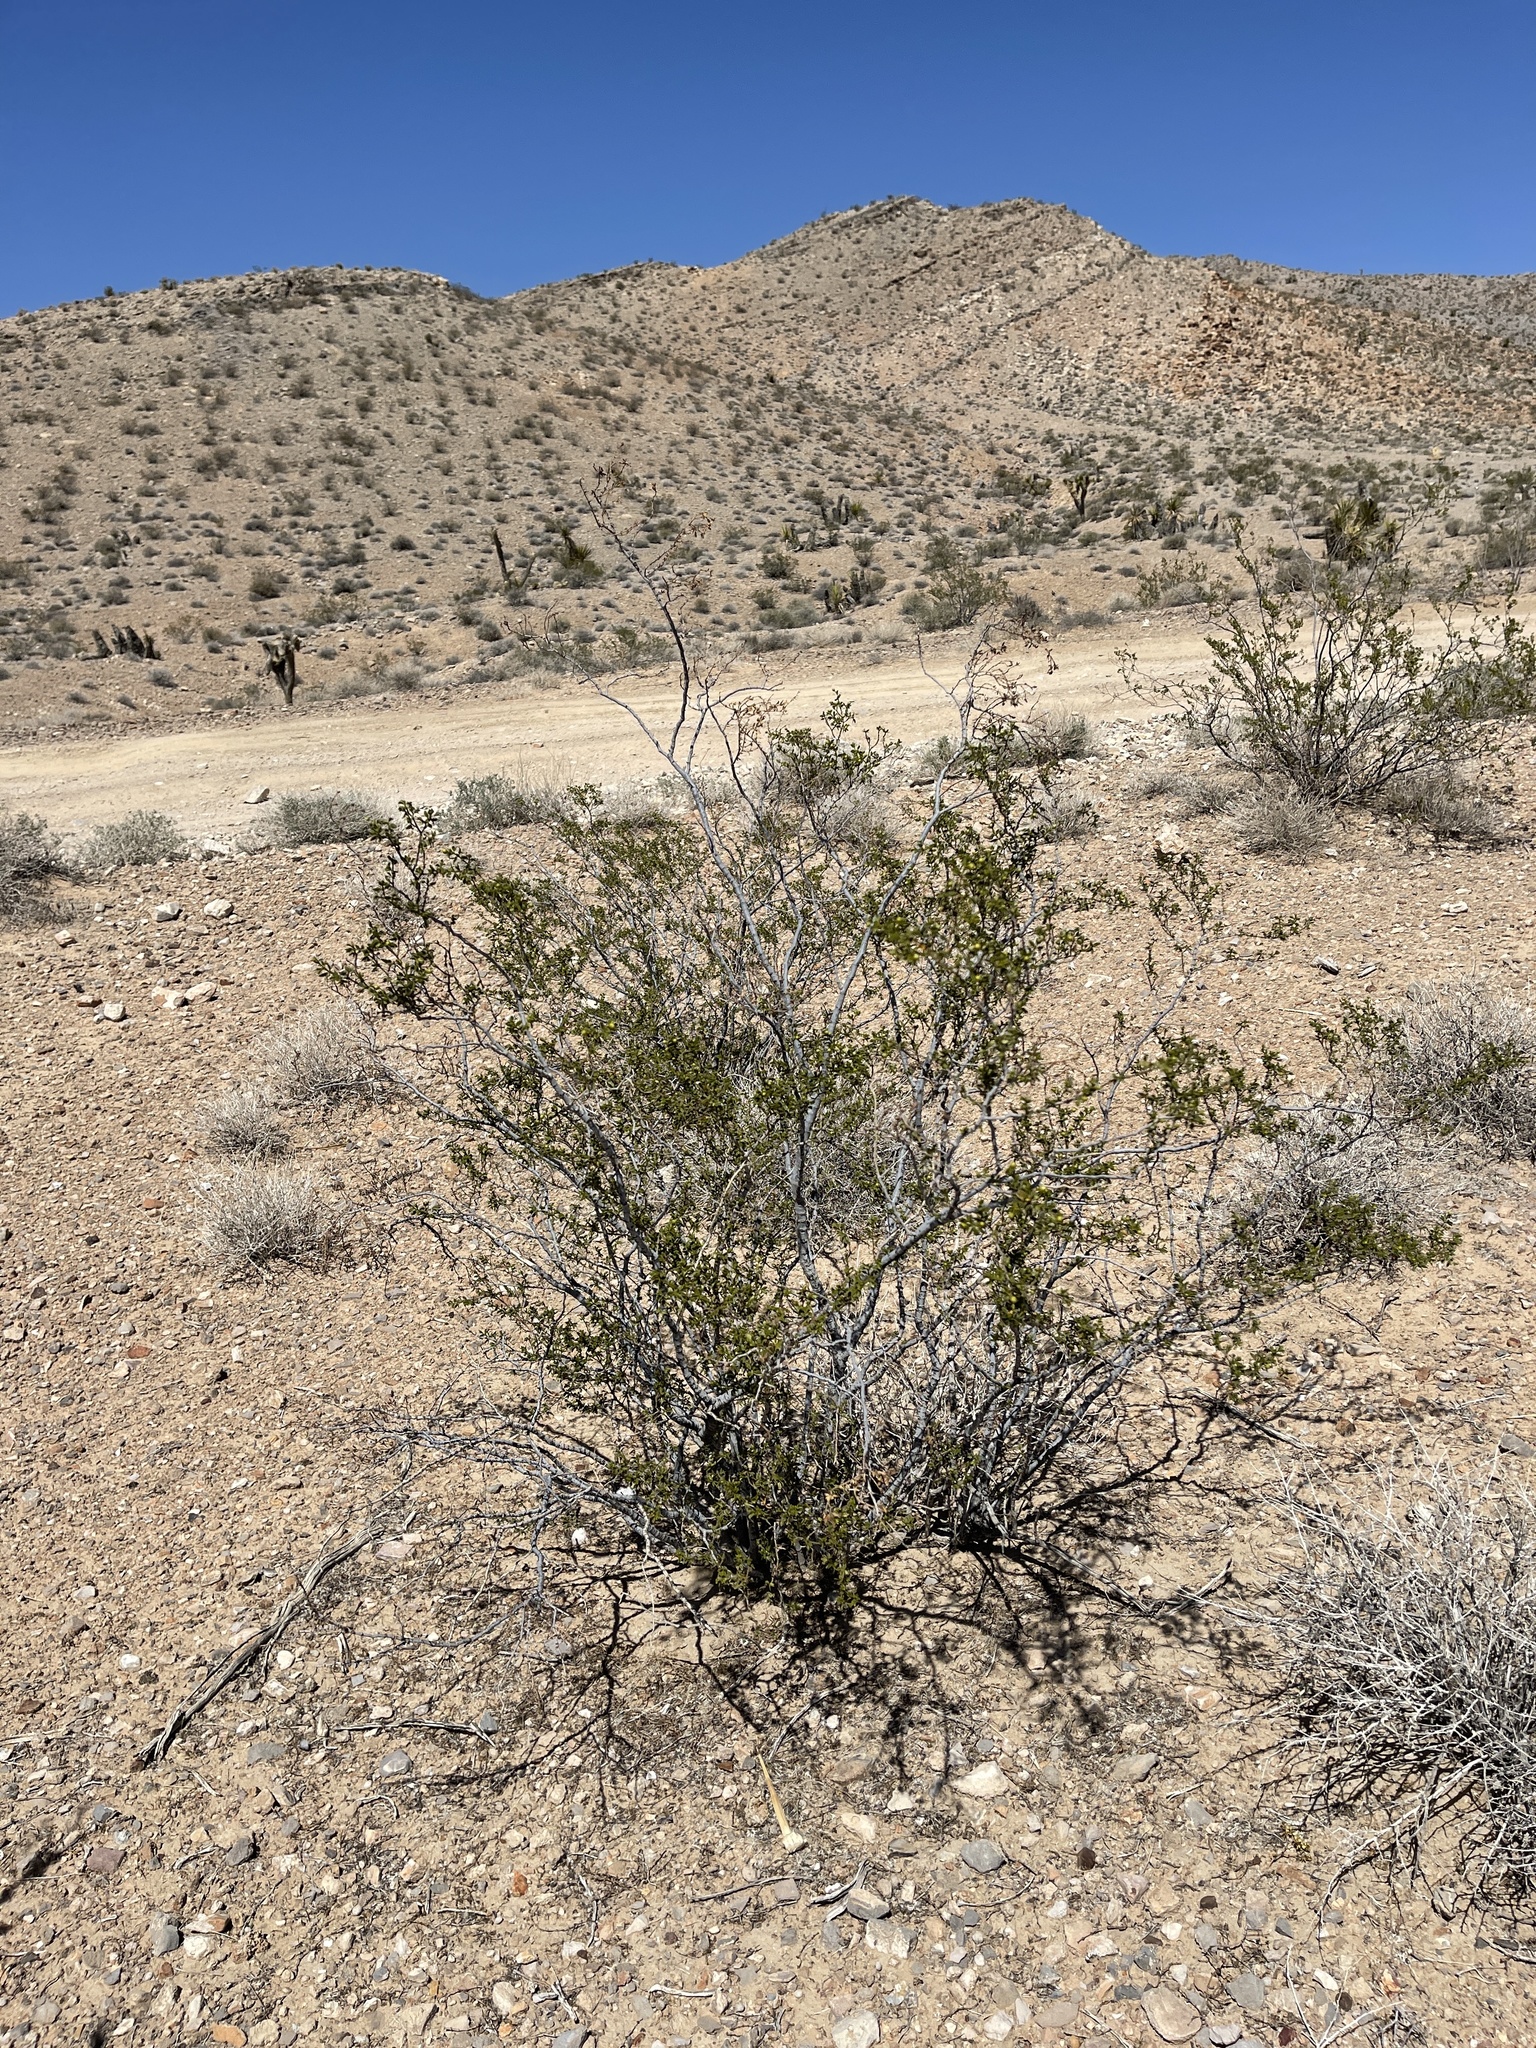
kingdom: Plantae
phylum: Tracheophyta
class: Magnoliopsida
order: Zygophyllales
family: Zygophyllaceae
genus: Larrea
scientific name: Larrea tridentata
